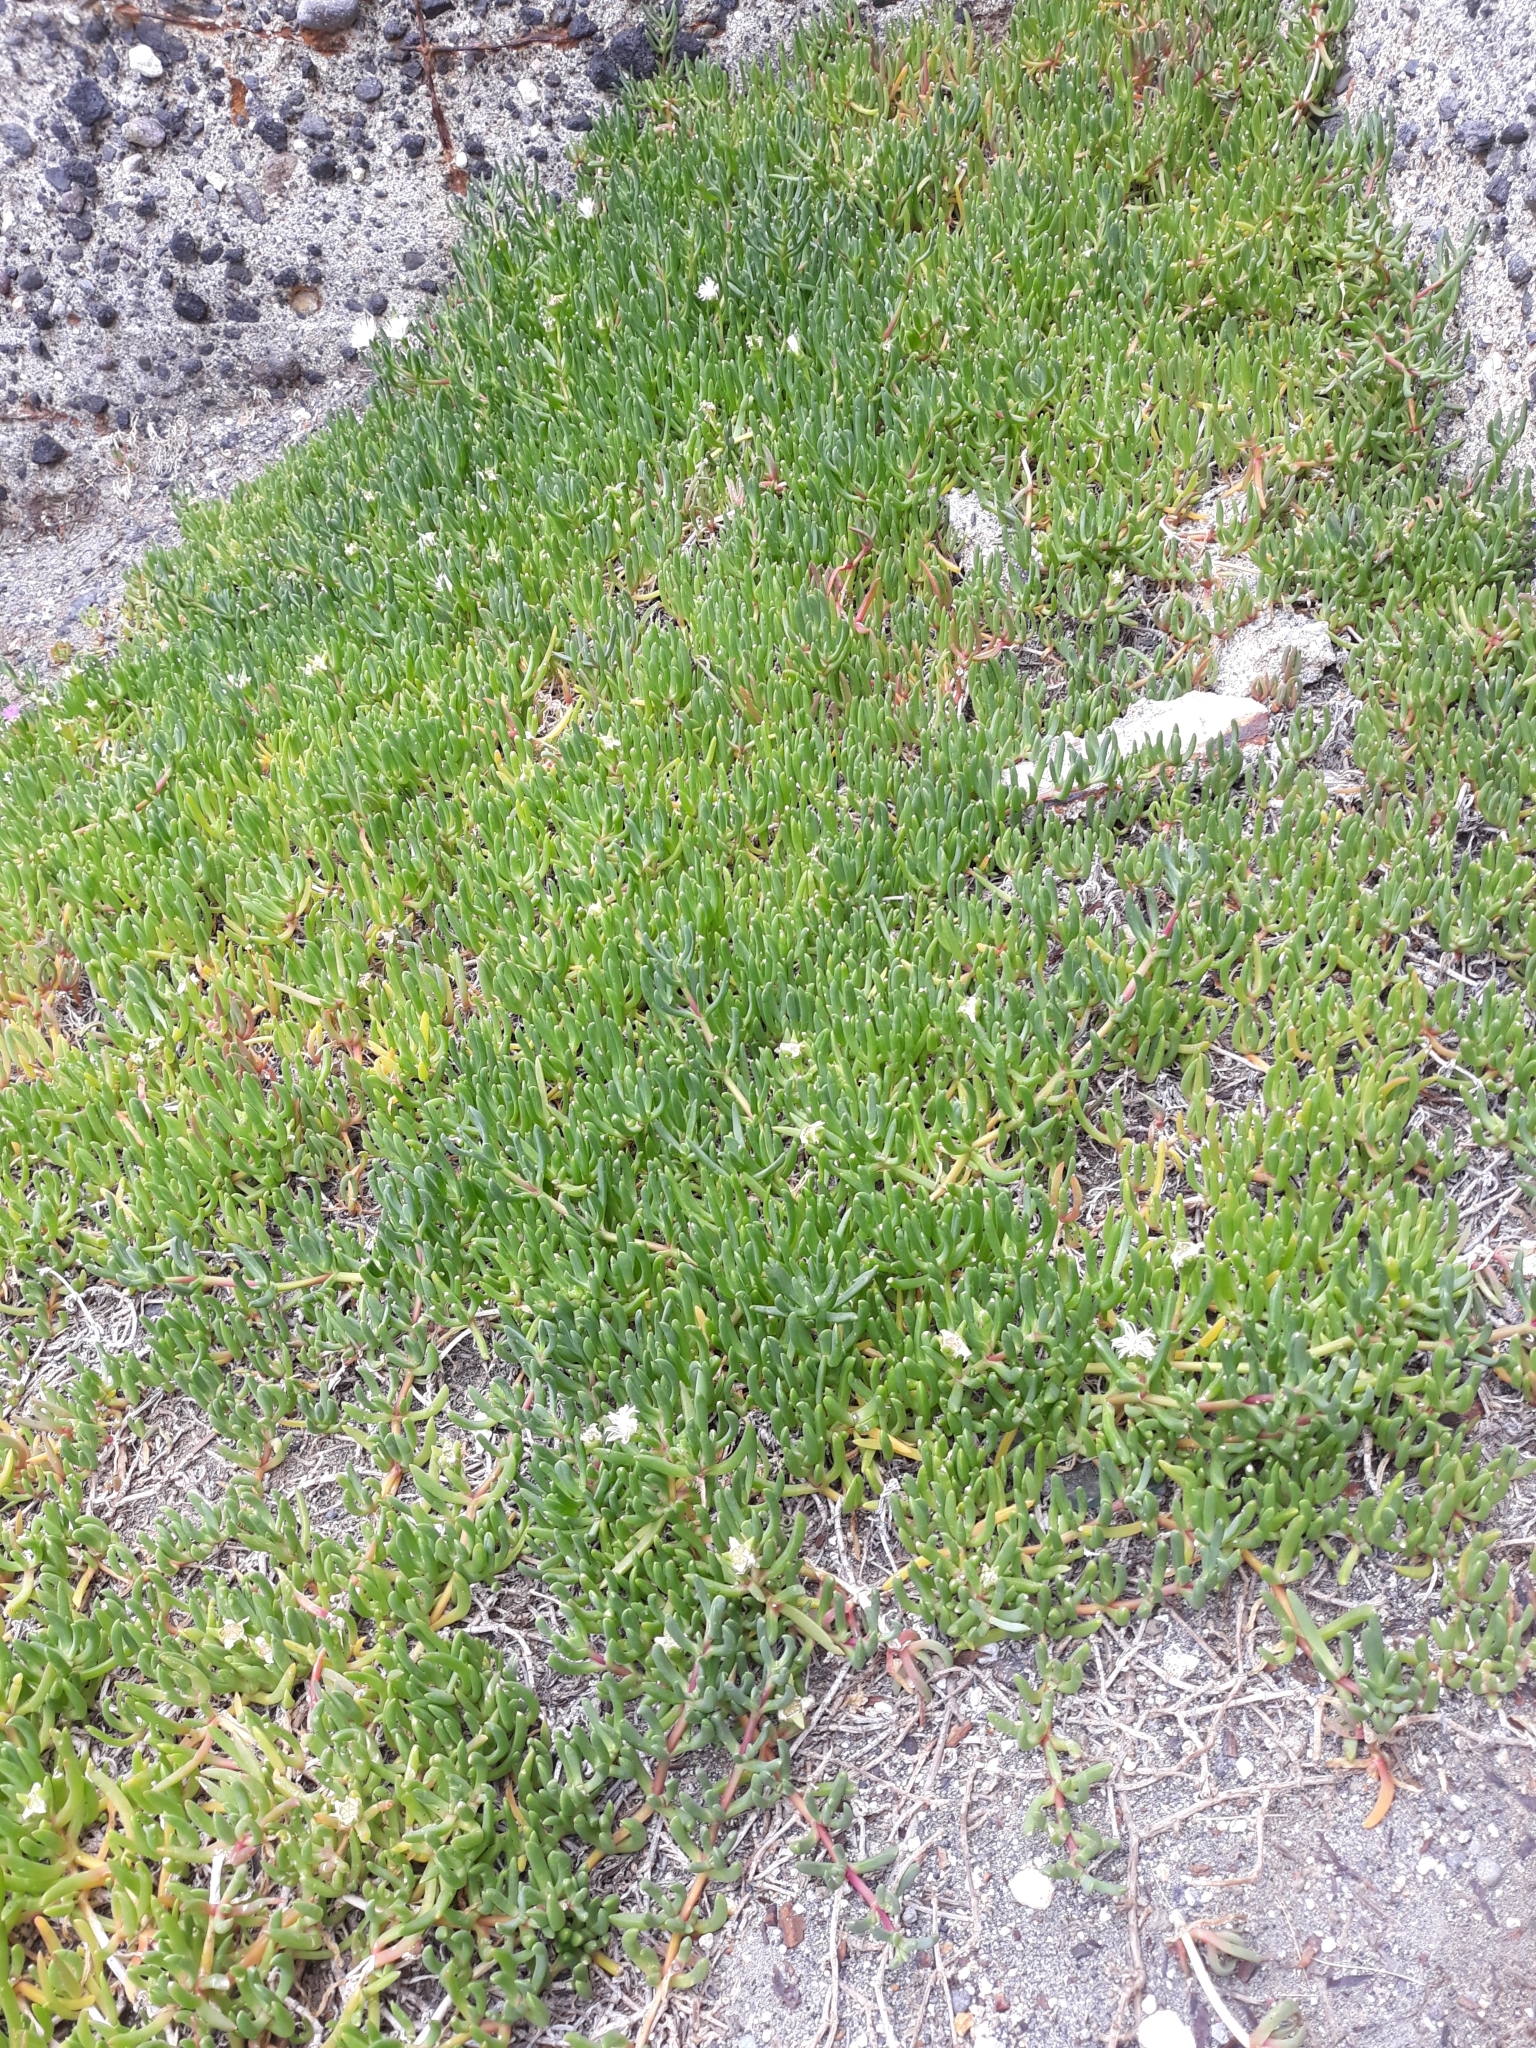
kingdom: Plantae
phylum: Tracheophyta
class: Magnoliopsida
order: Caryophyllales
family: Aizoaceae
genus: Disphyma
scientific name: Disphyma australe
